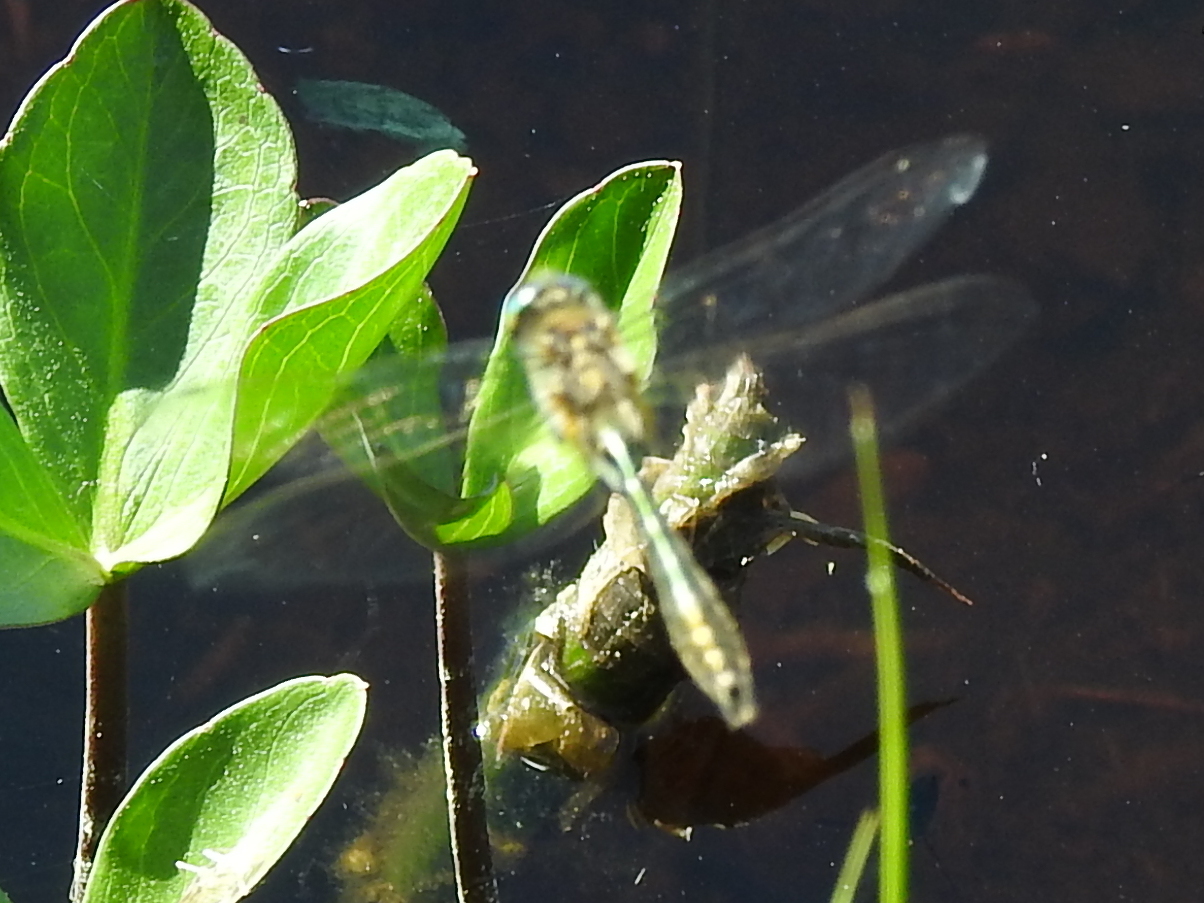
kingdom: Animalia
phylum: Arthropoda
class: Insecta
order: Odonata
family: Corduliidae
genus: Cordulia
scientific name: Cordulia aenea
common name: Downy emerald
